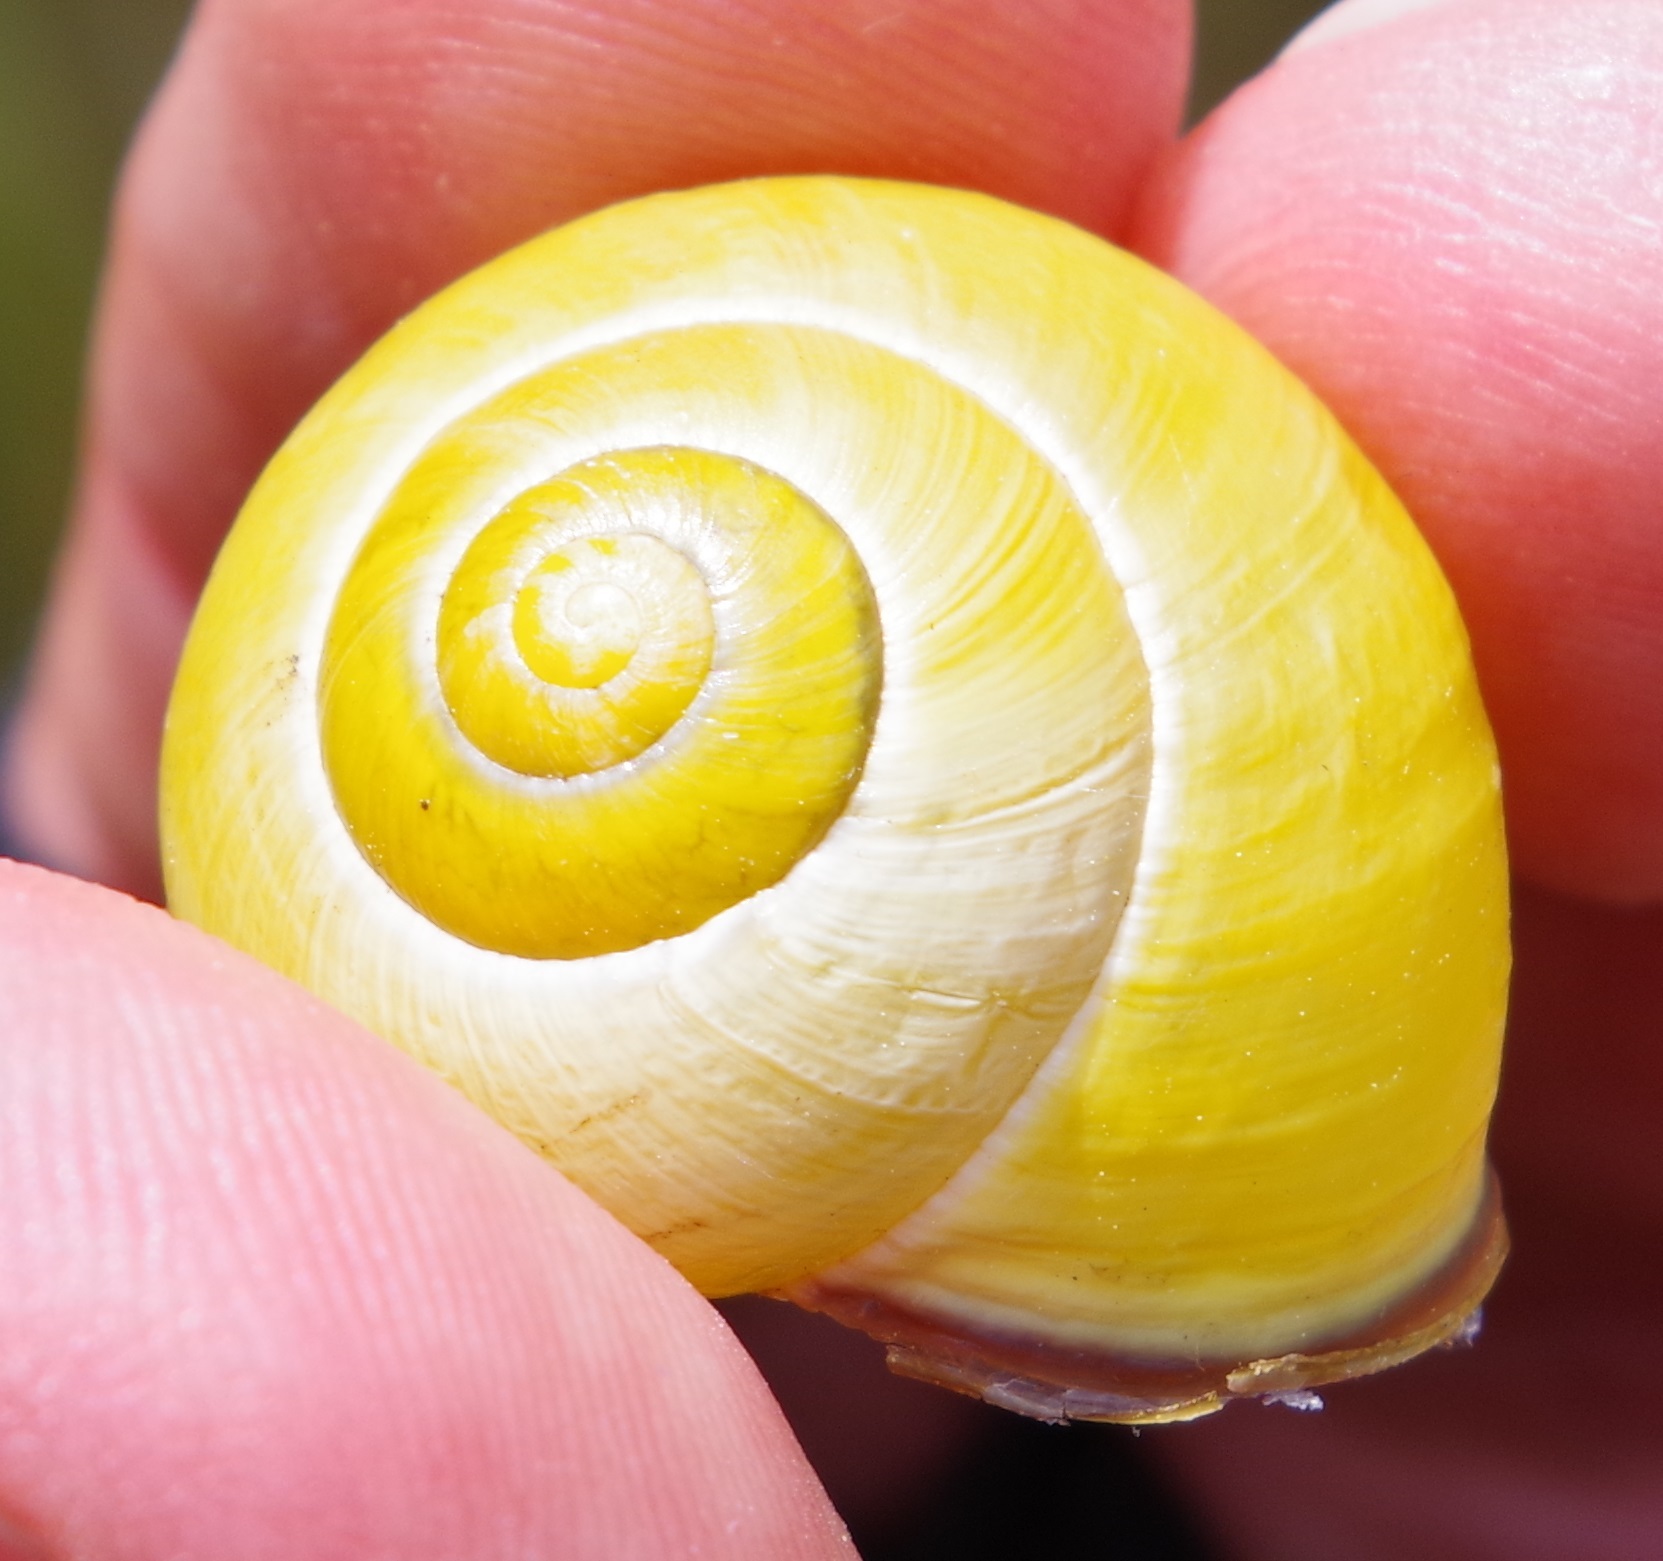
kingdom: Animalia
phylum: Mollusca
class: Gastropoda
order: Stylommatophora
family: Helicidae
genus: Cepaea
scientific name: Cepaea nemoralis
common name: Grovesnail
